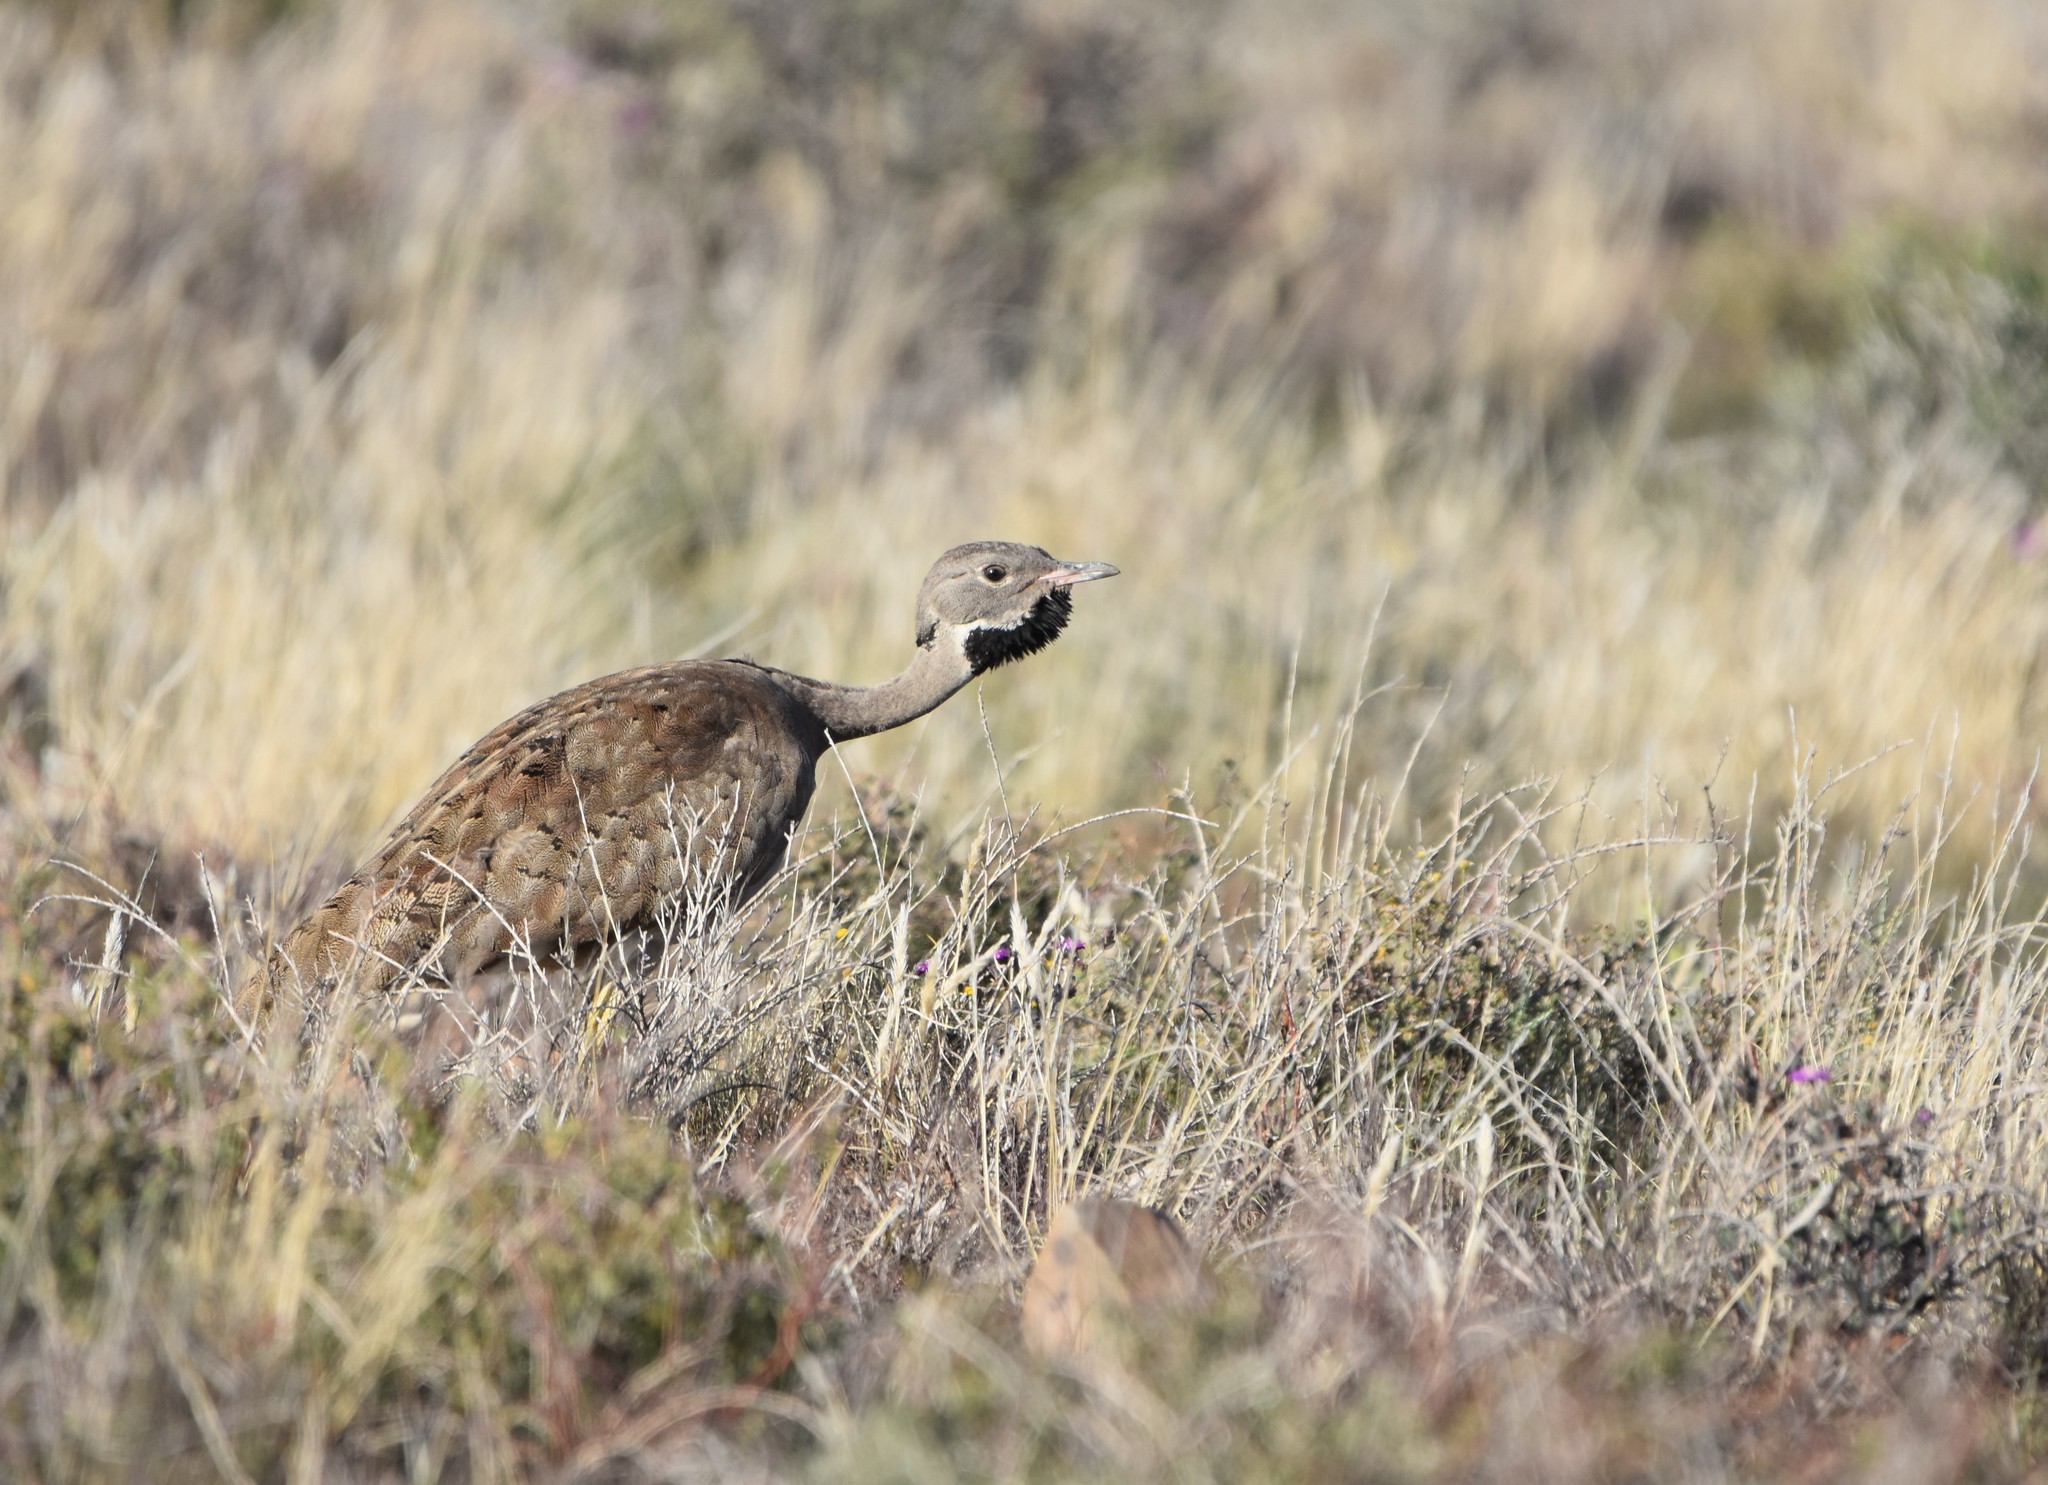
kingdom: Animalia
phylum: Chordata
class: Aves
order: Otidiformes
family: Otididae
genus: Eupodotis
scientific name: Eupodotis vigorsii
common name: Karoo korhaan
